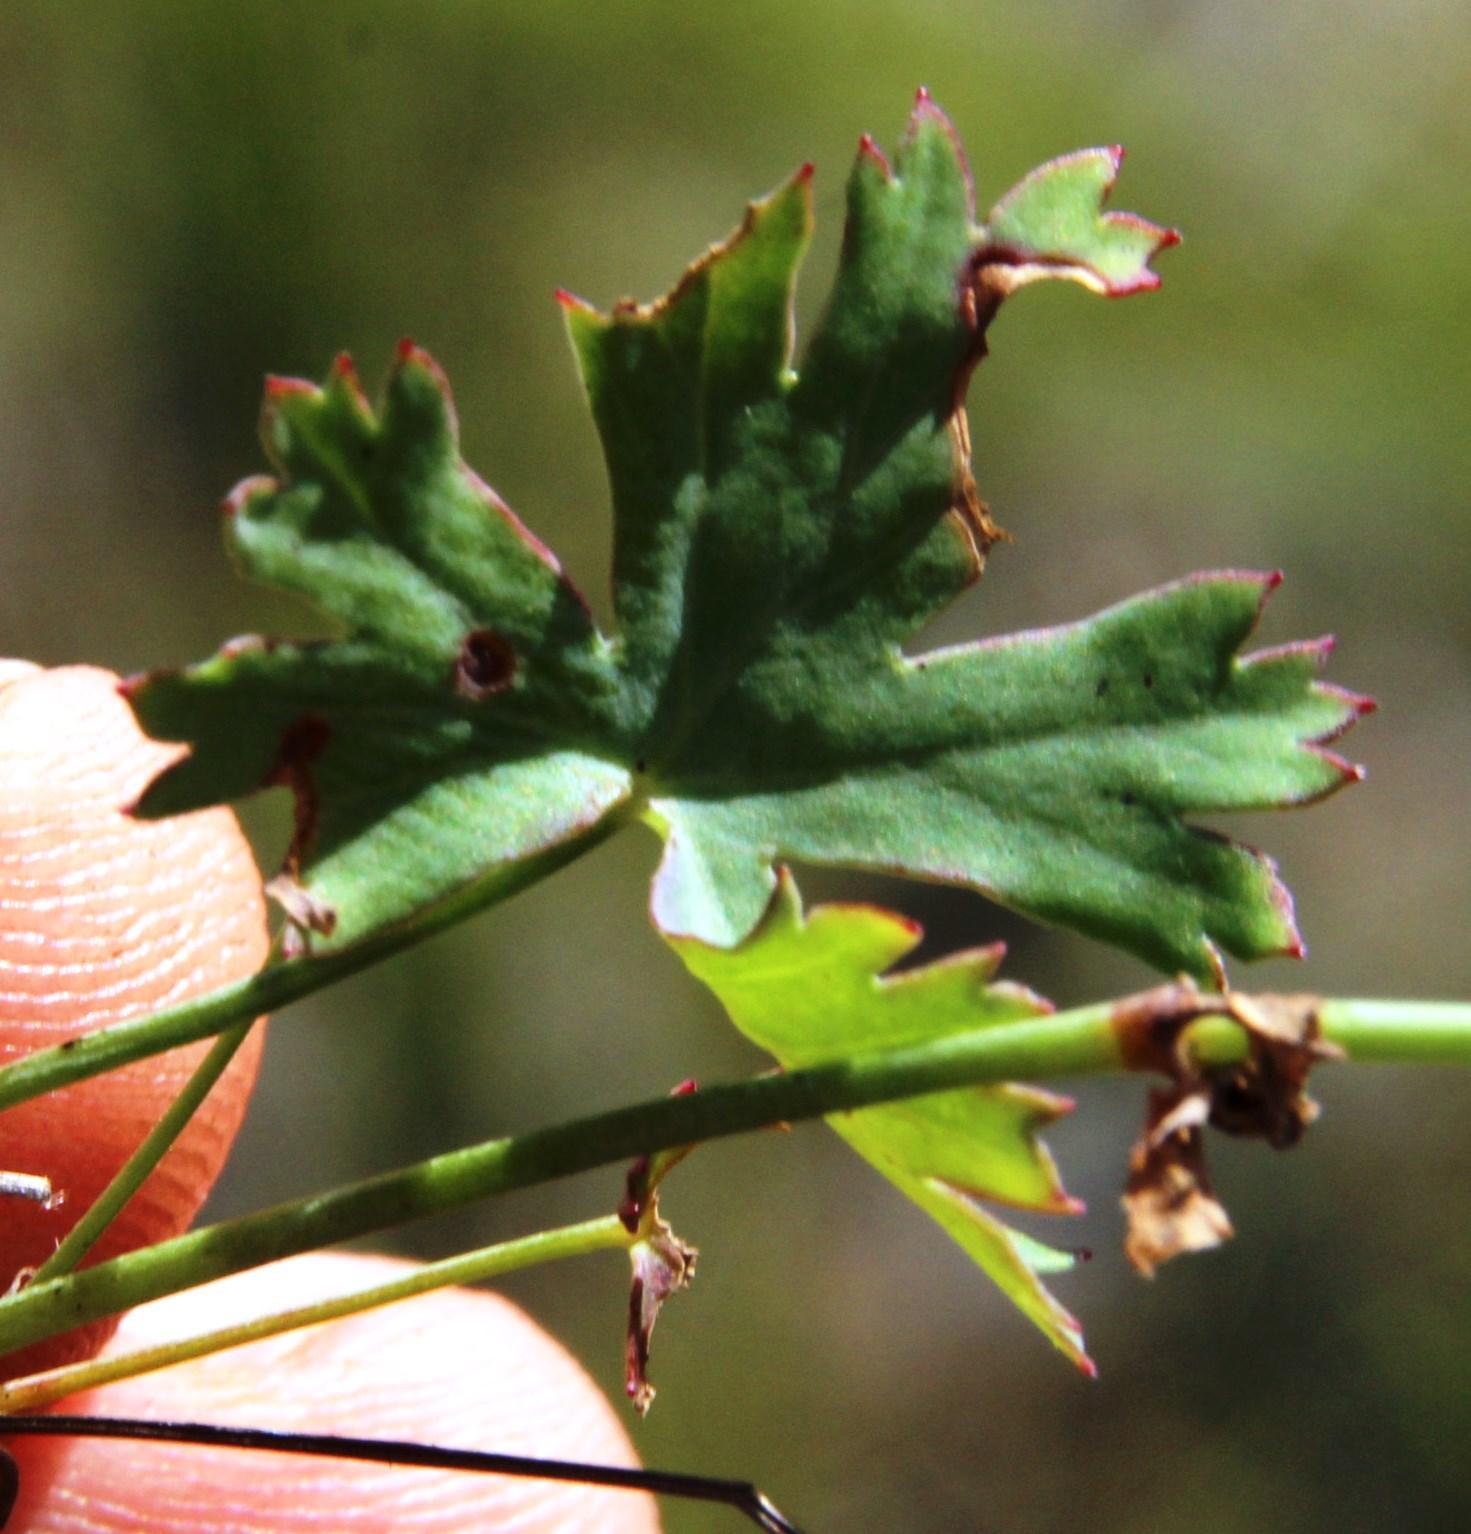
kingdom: Plantae
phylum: Tracheophyta
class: Magnoliopsida
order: Geraniales
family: Geraniaceae
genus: Pelargonium
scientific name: Pelargonium patulum
